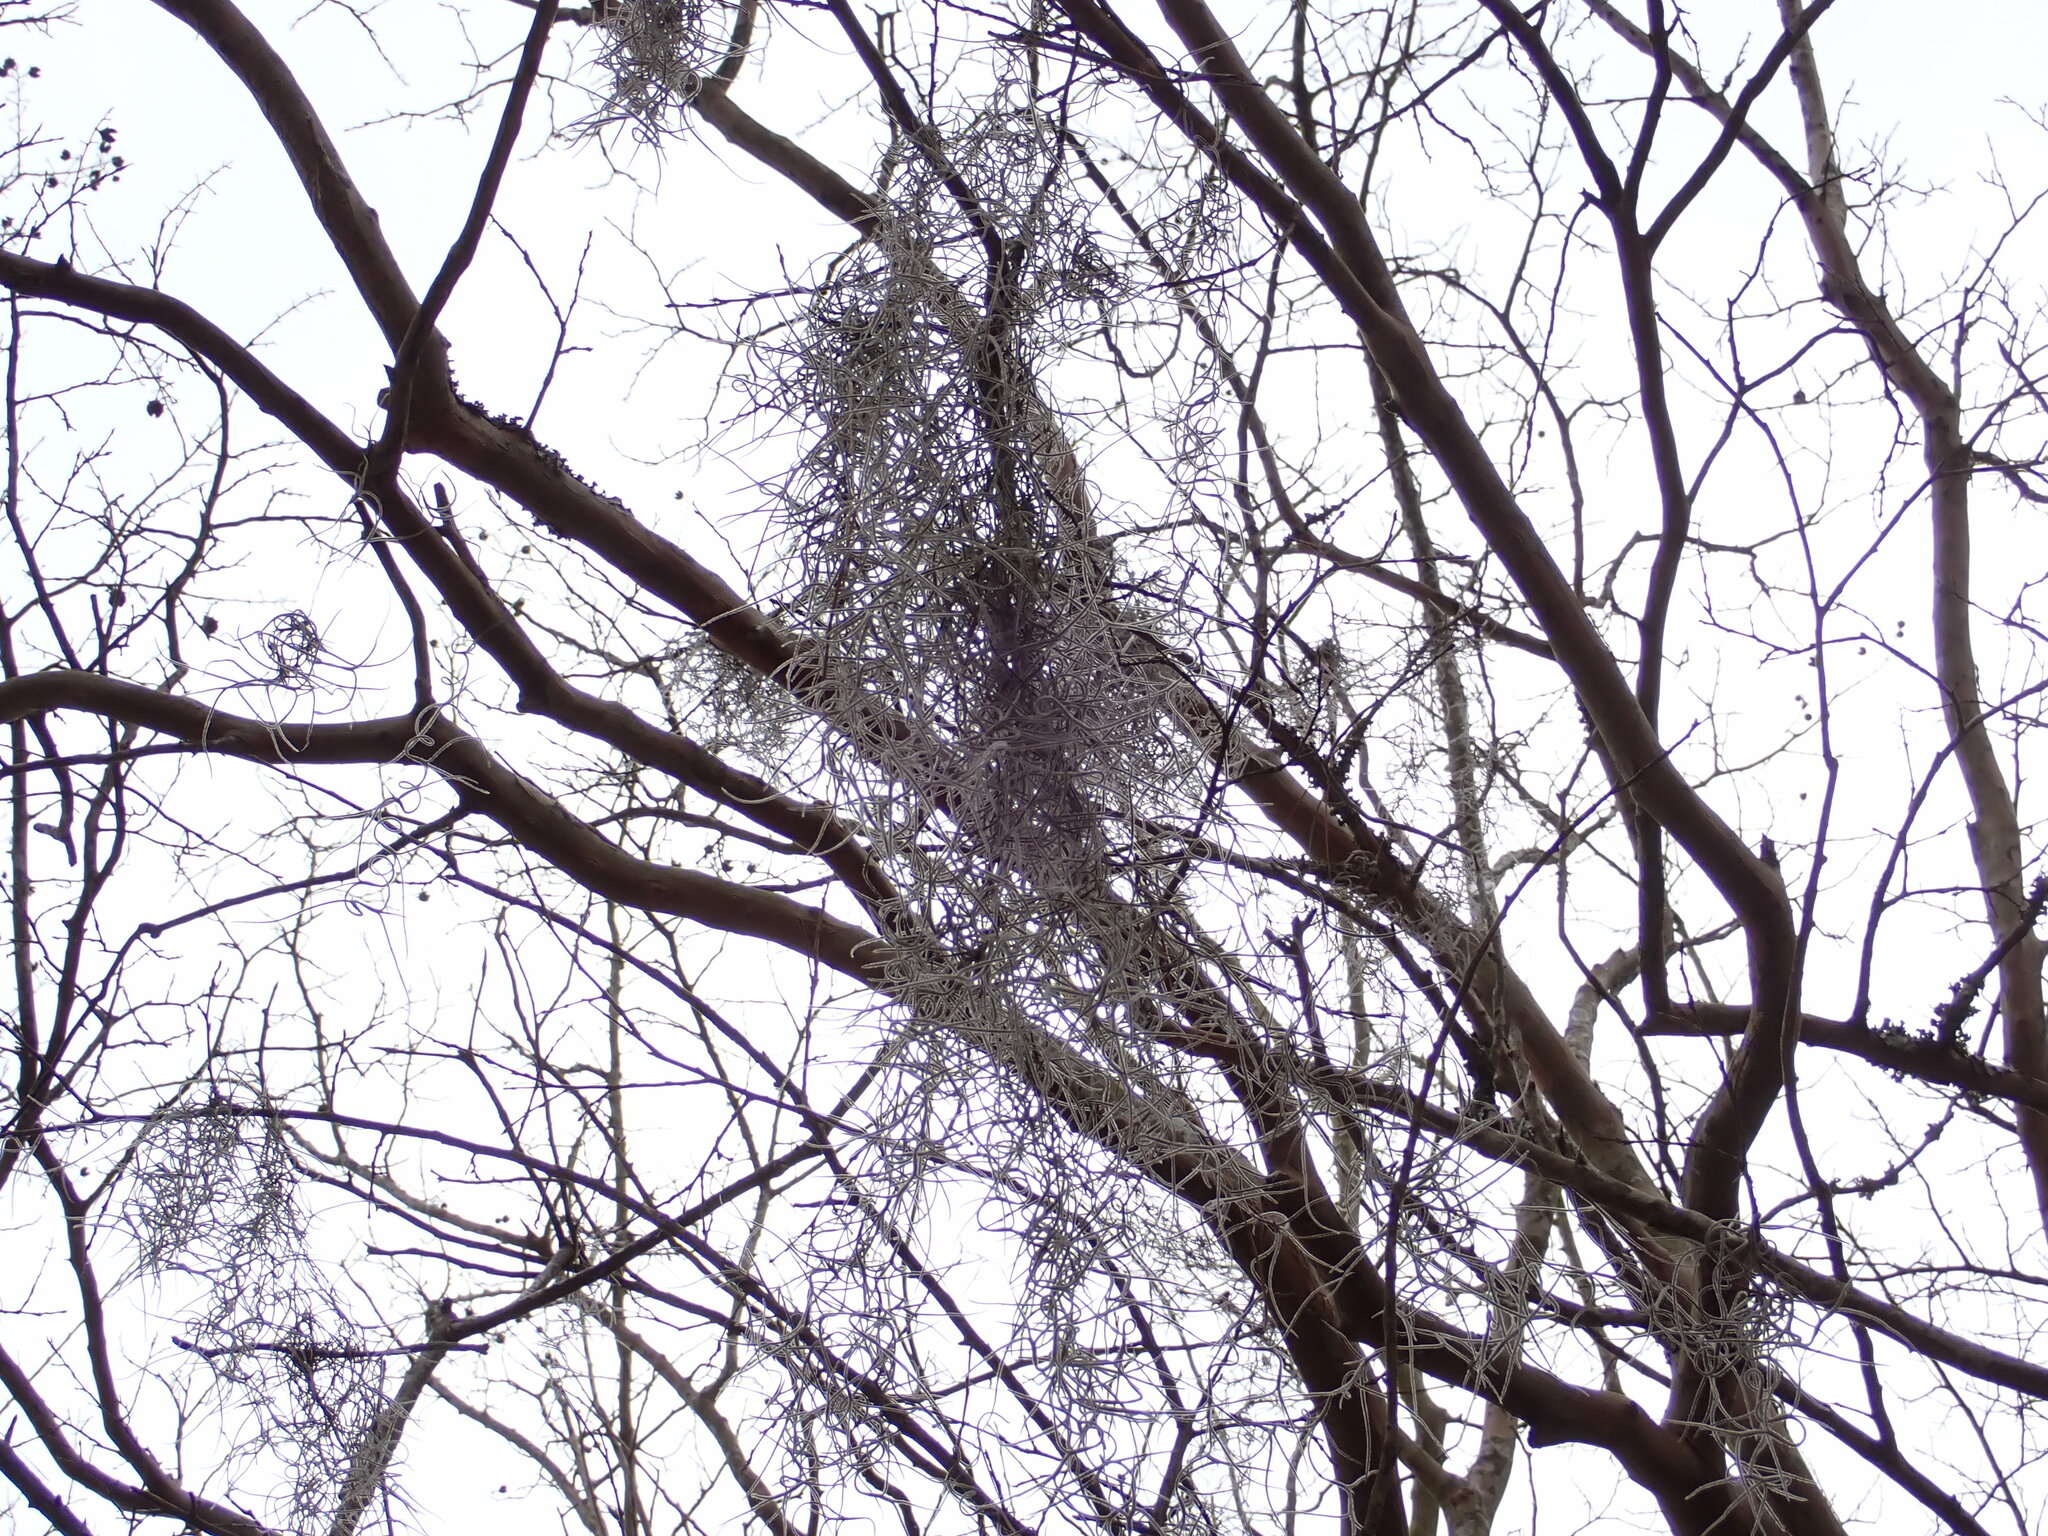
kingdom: Plantae
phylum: Tracheophyta
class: Liliopsida
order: Poales
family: Bromeliaceae
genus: Tillandsia
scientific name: Tillandsia usneoides
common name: Spanish moss
